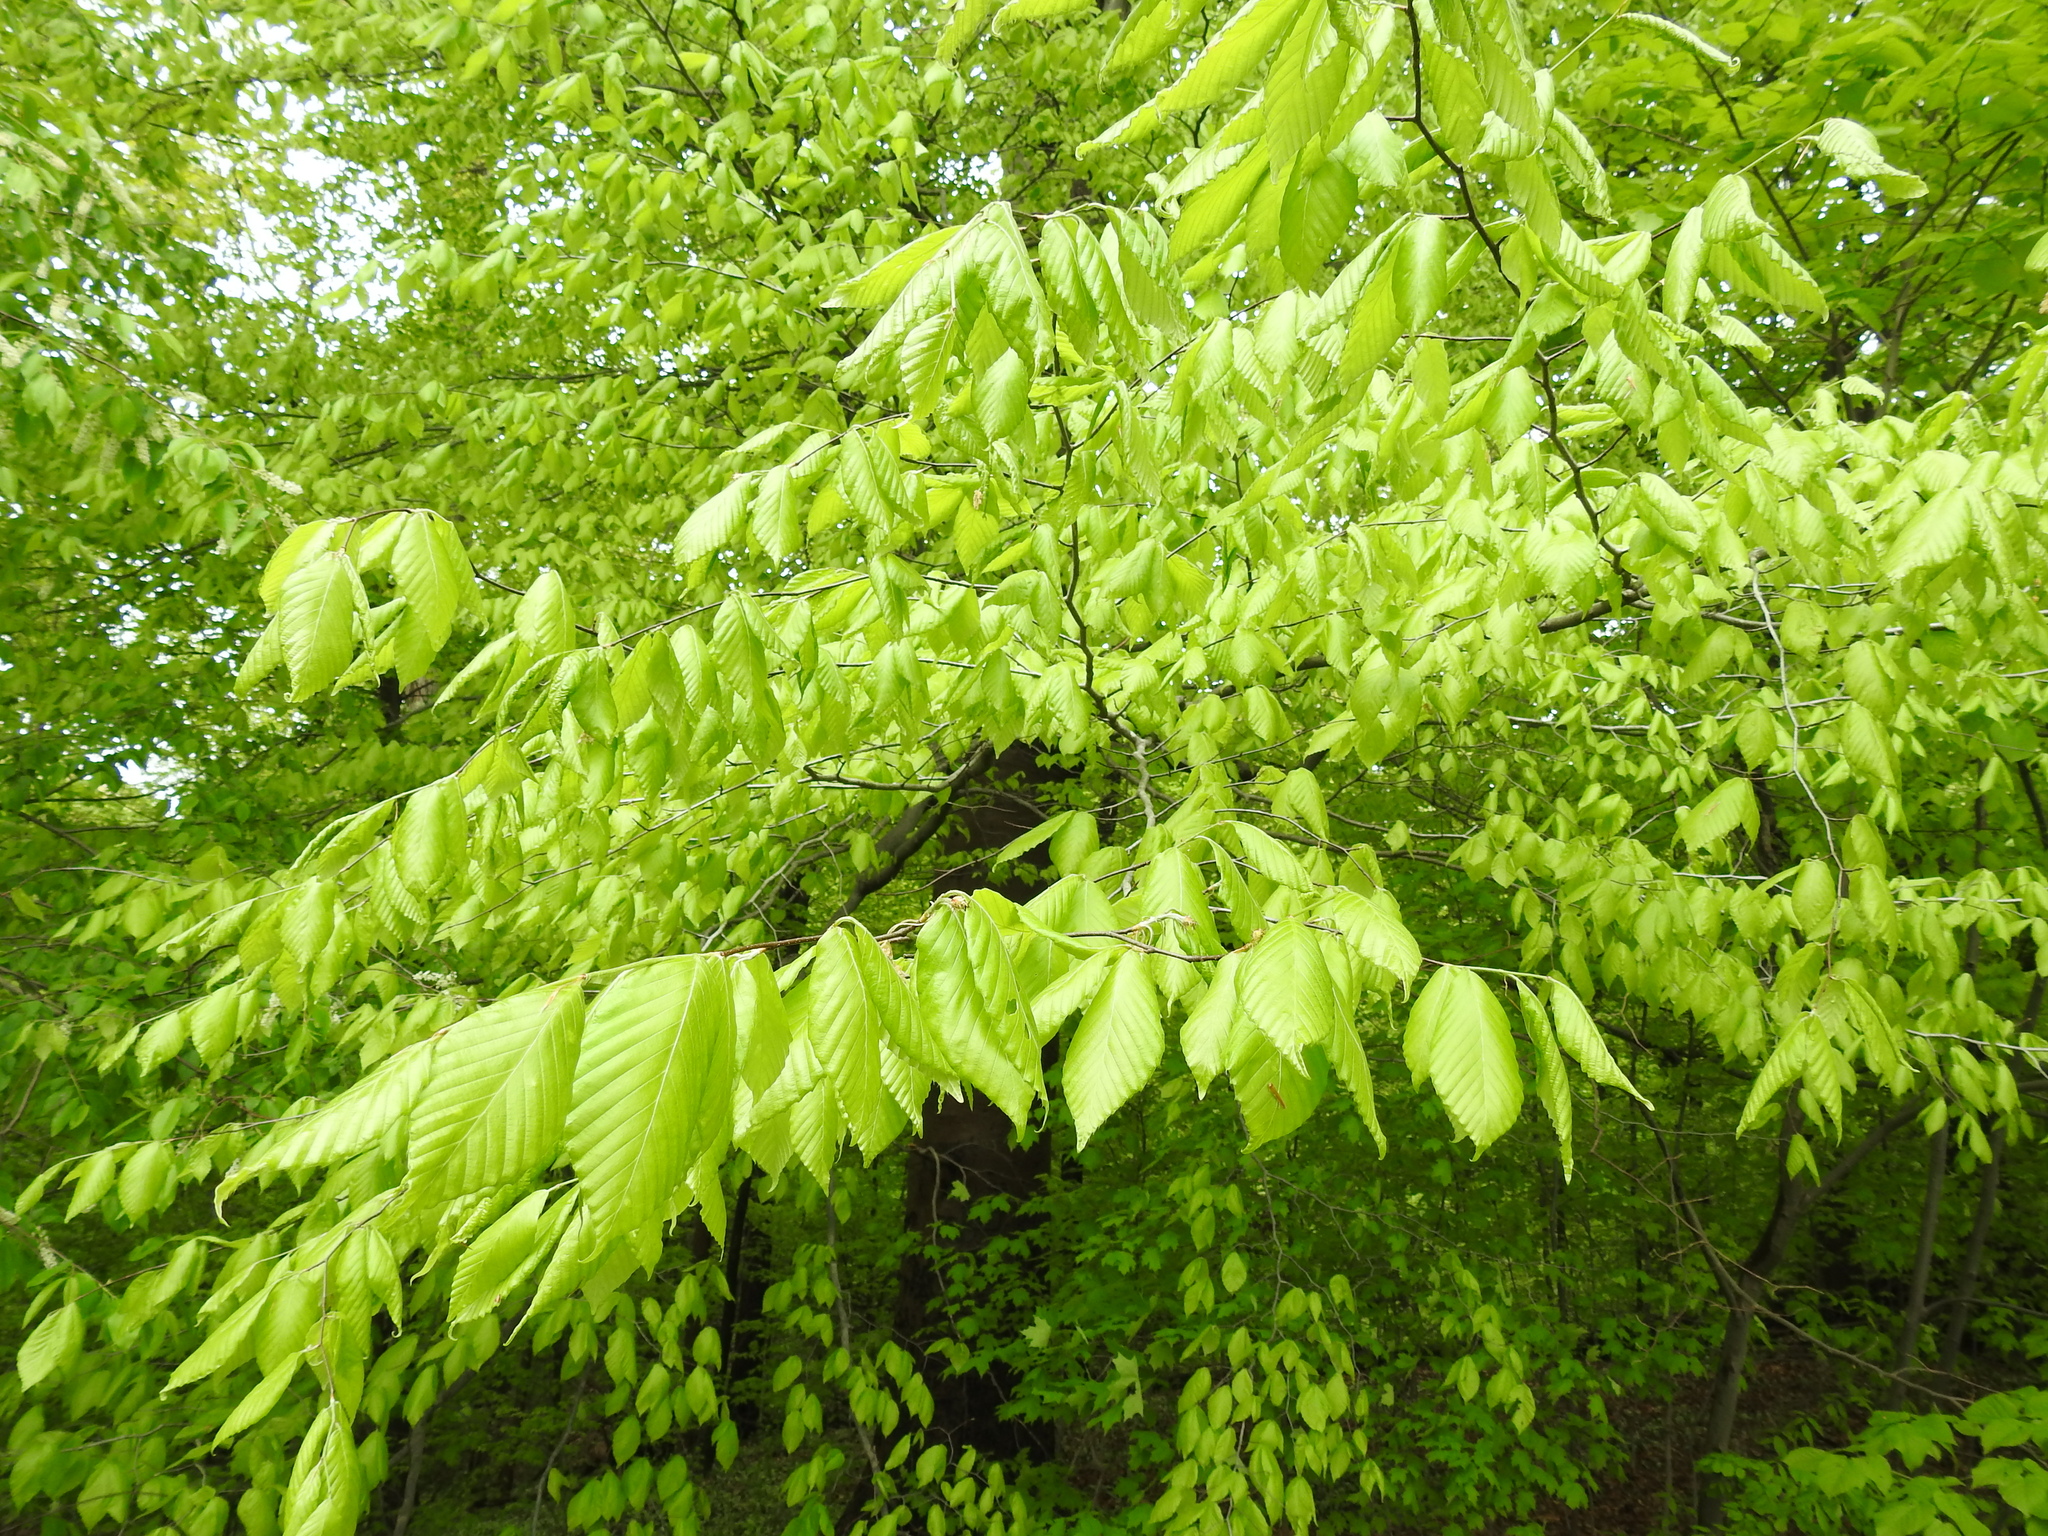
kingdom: Plantae
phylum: Tracheophyta
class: Magnoliopsida
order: Fagales
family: Fagaceae
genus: Fagus
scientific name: Fagus grandifolia
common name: American beech
